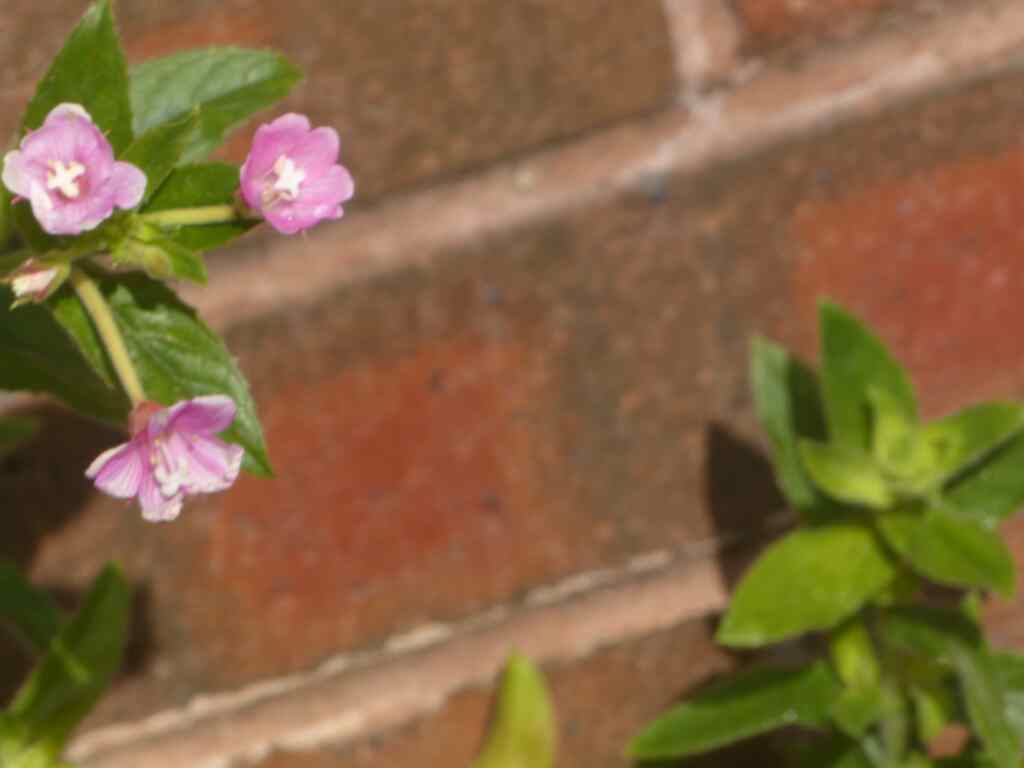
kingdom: Plantae
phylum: Tracheophyta
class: Magnoliopsida
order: Myrtales
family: Onagraceae
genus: Epilobium
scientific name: Epilobium hirsutum
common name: Great willowherb
